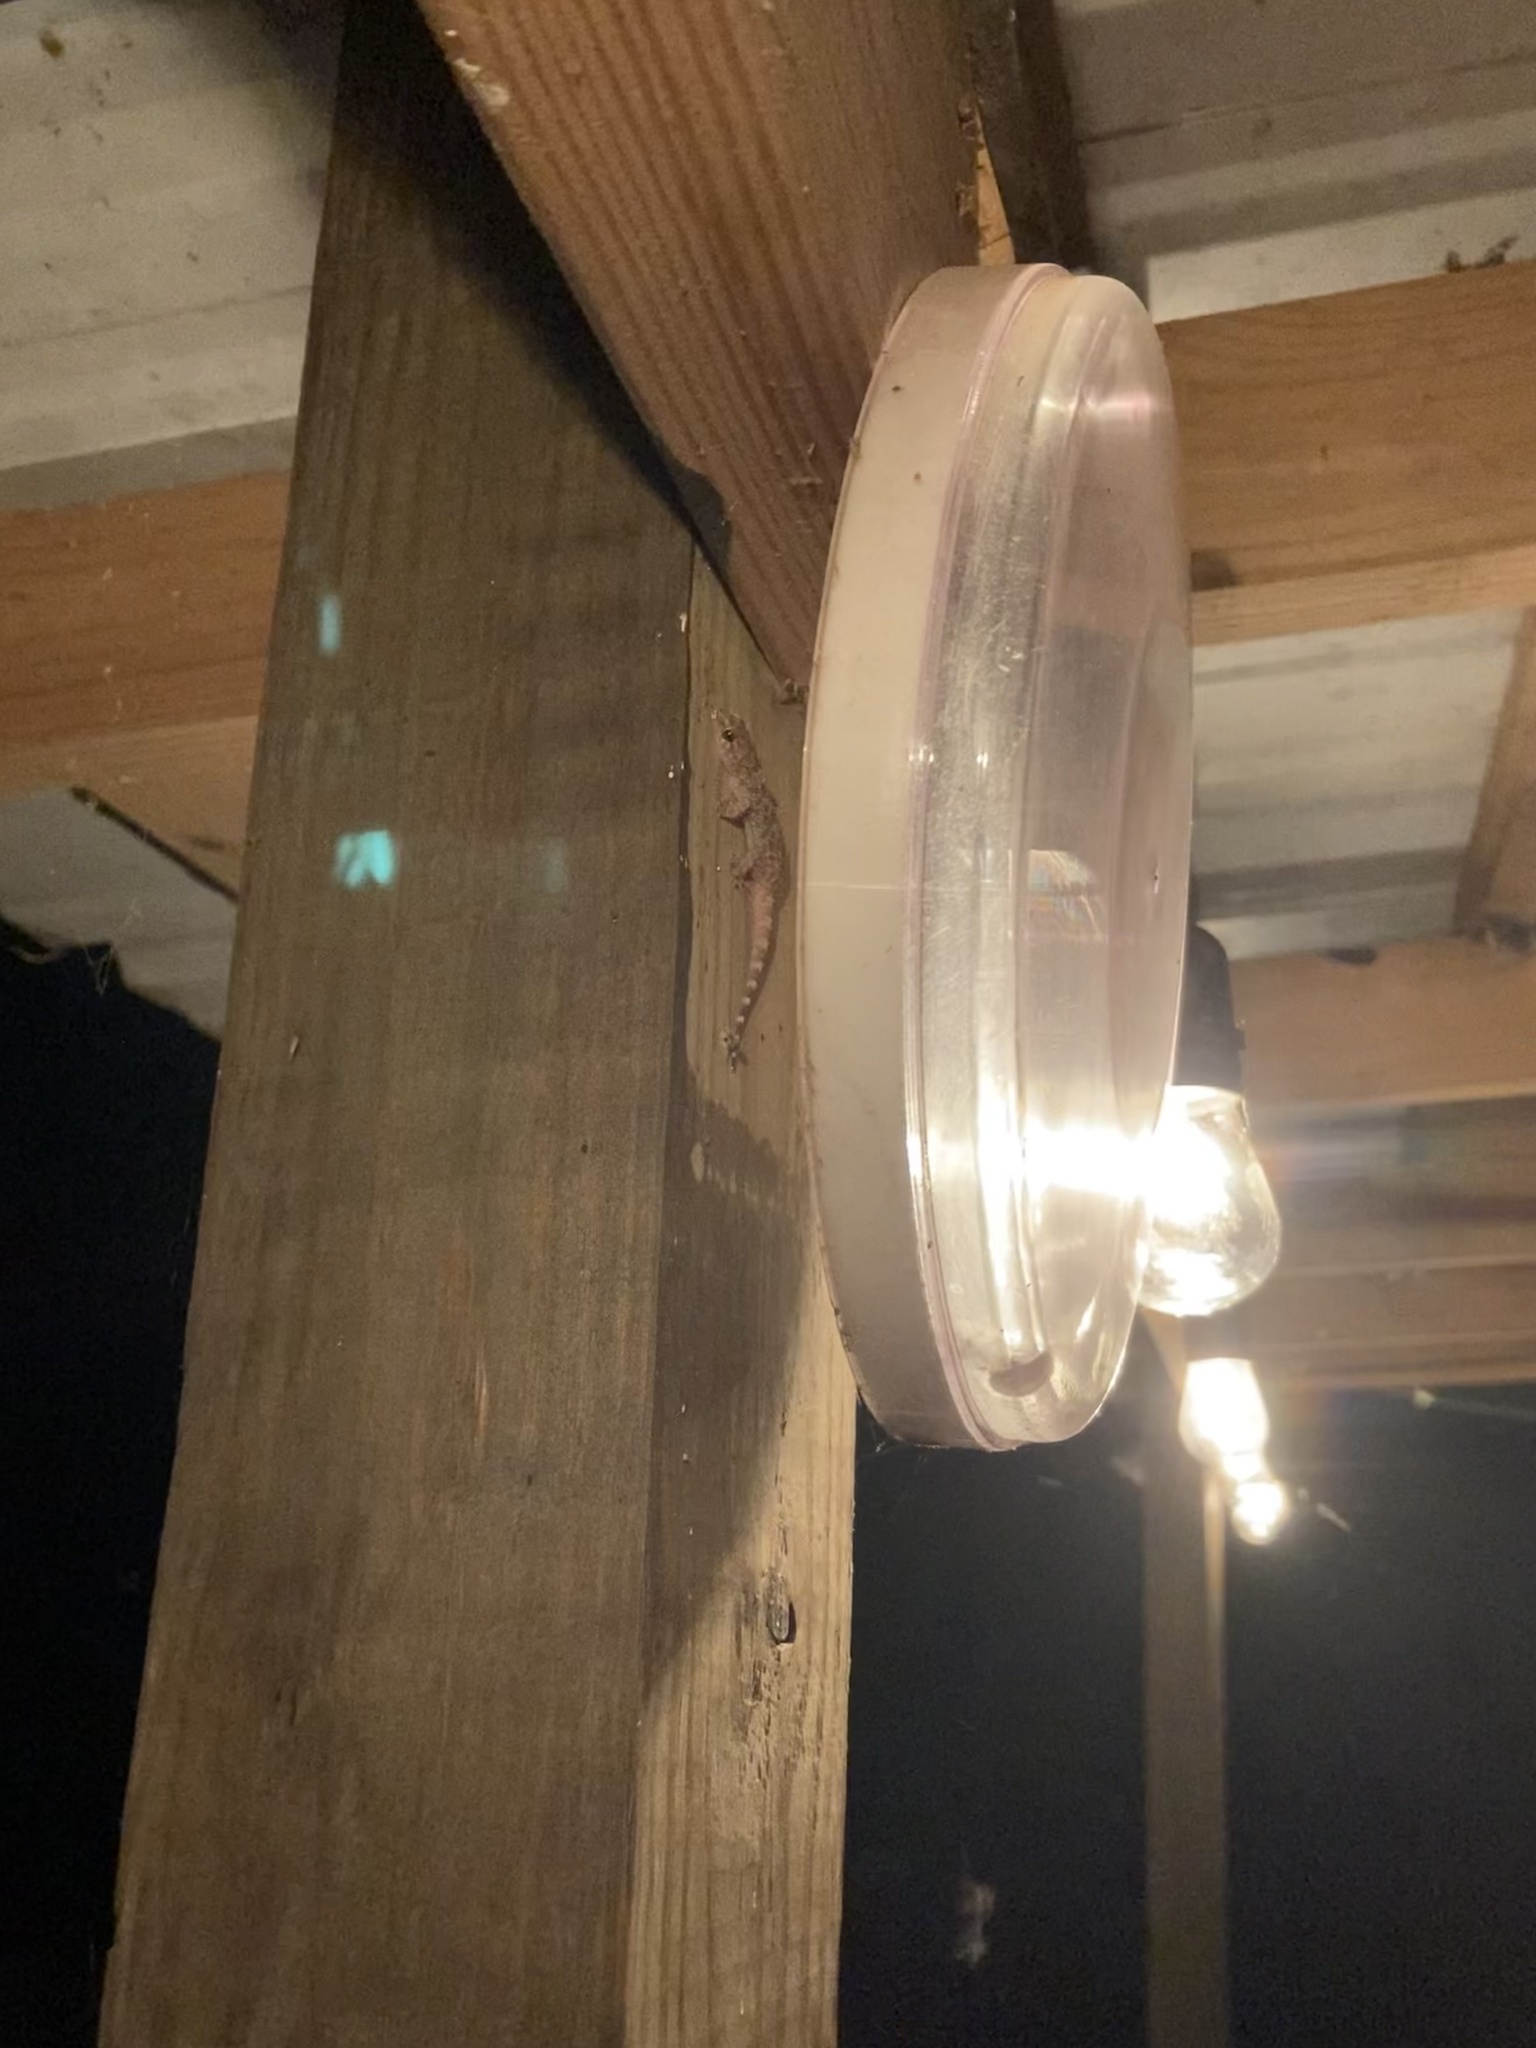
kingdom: Animalia
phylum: Chordata
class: Squamata
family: Gekkonidae
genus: Hemidactylus
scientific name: Hemidactylus turcicus
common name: Turkish gecko
